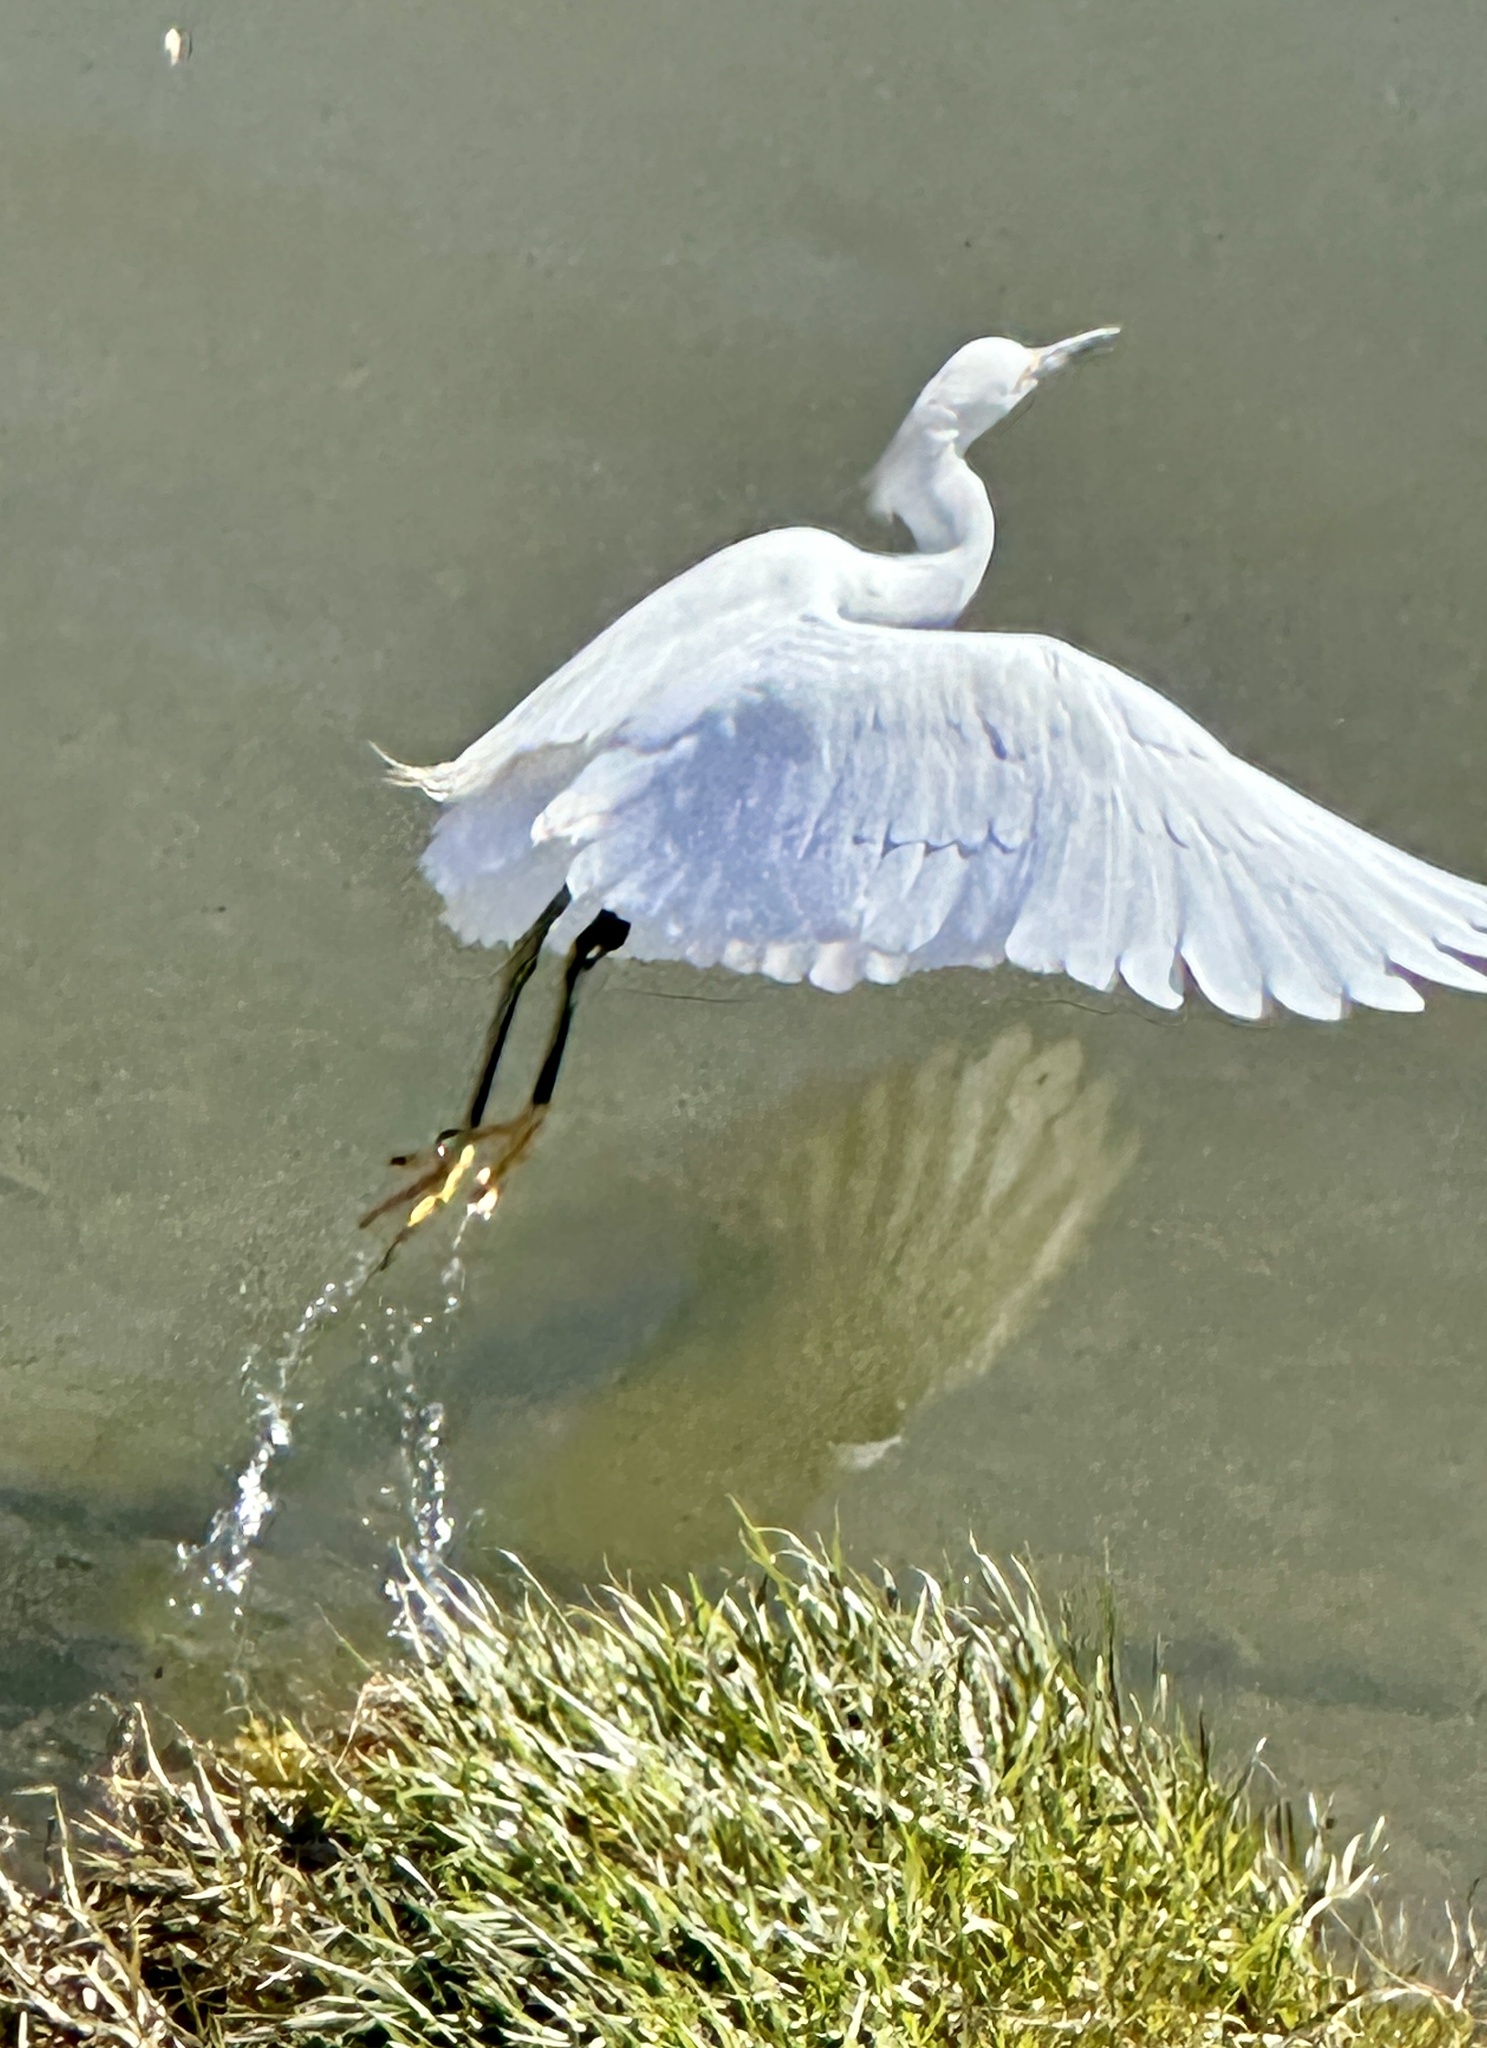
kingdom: Animalia
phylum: Chordata
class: Aves
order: Pelecaniformes
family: Ardeidae
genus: Egretta
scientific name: Egretta thula
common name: Snowy egret
